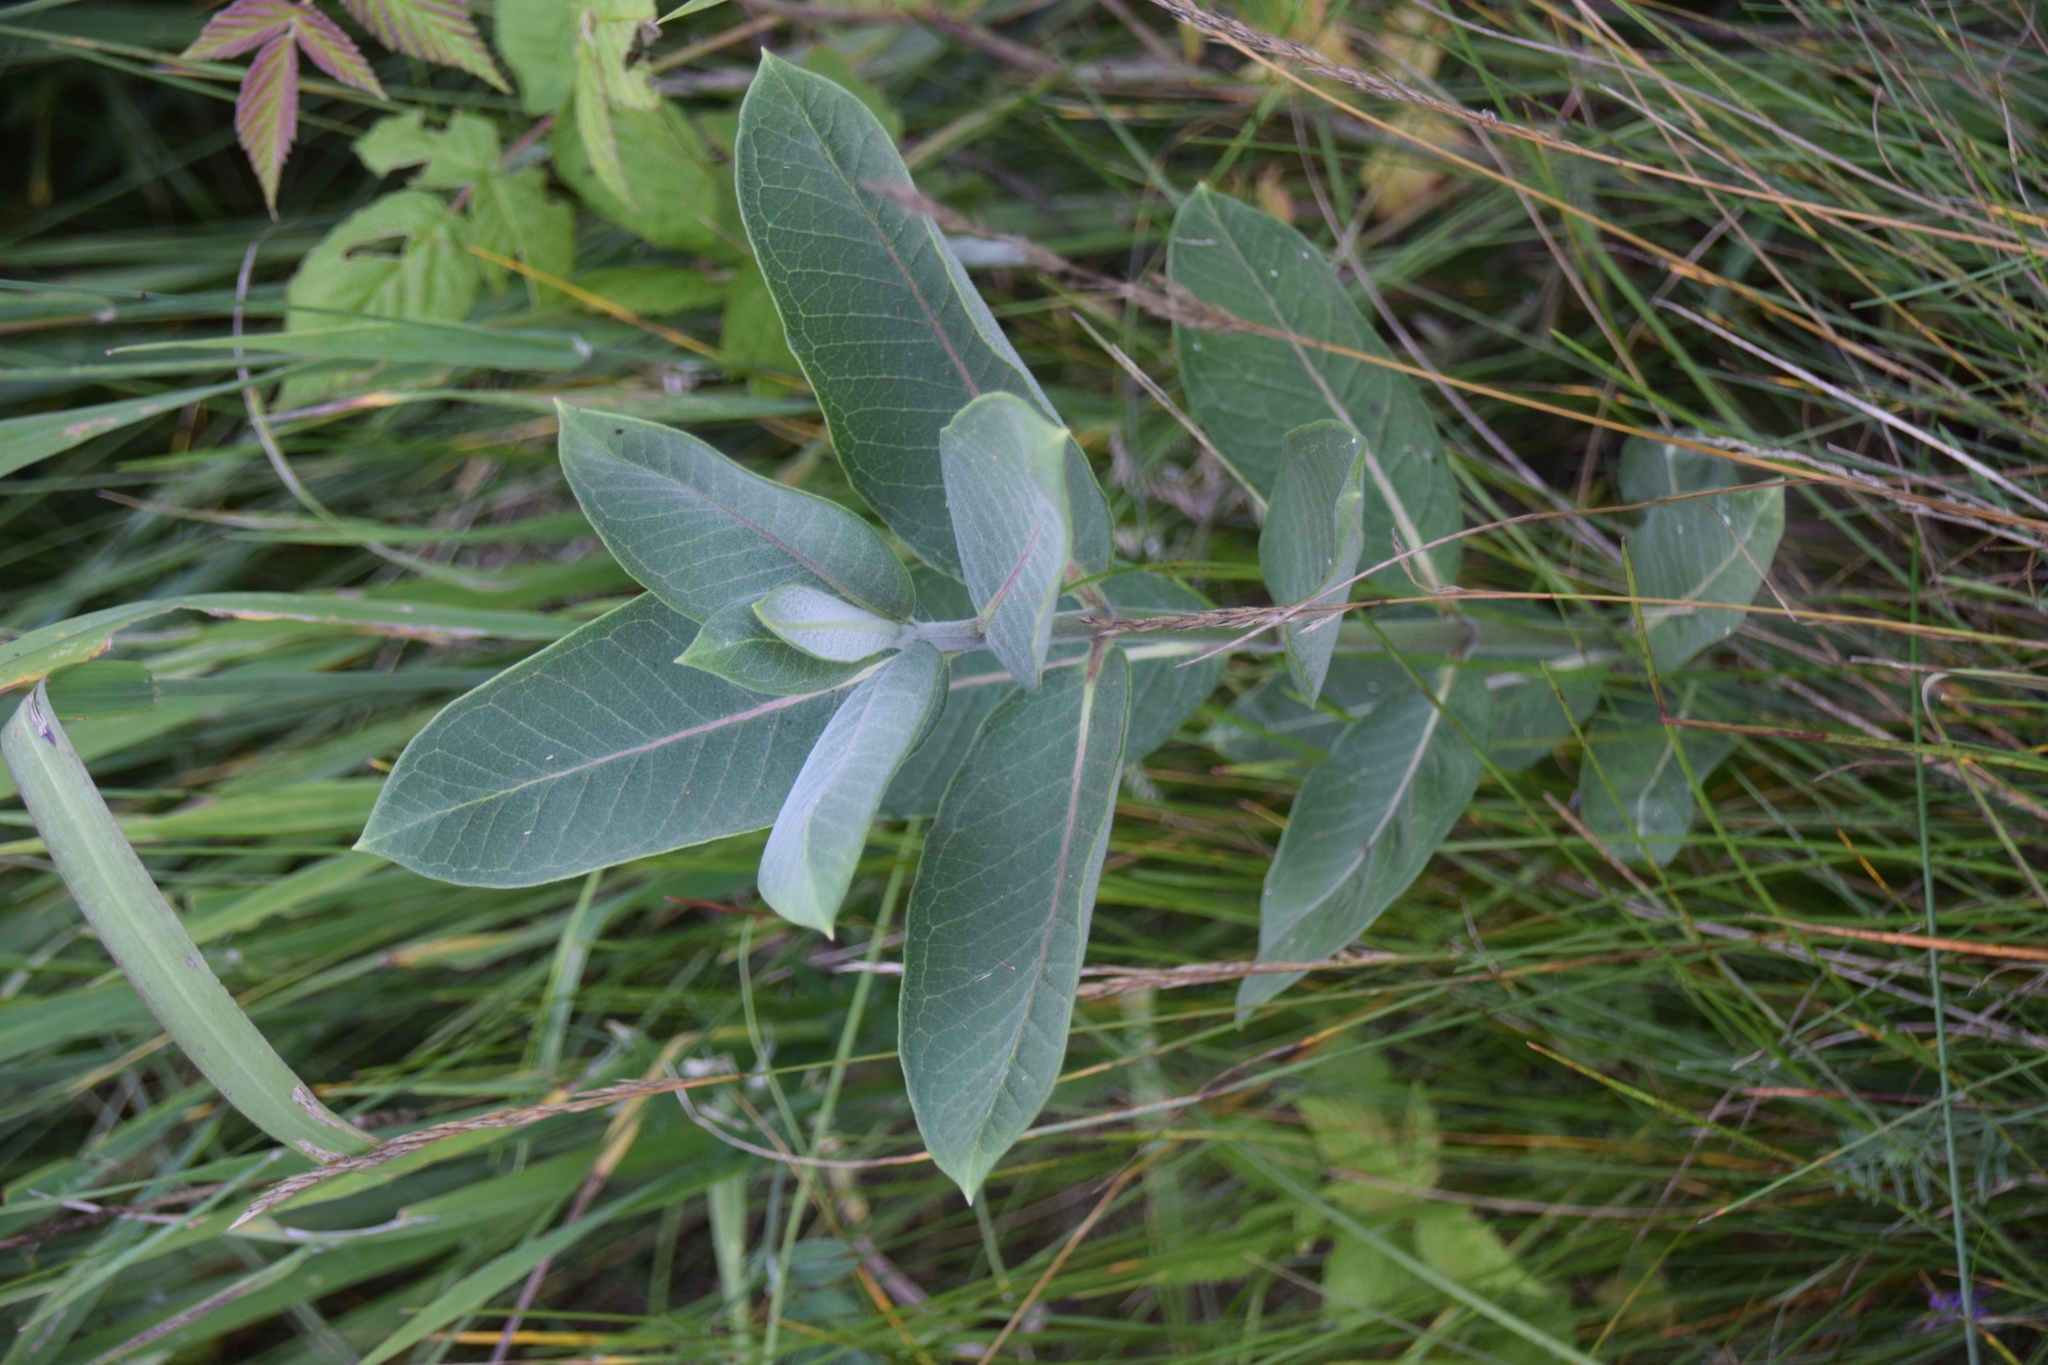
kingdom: Plantae
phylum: Tracheophyta
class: Magnoliopsida
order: Gentianales
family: Apocynaceae
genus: Asclepias
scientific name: Asclepias syriaca
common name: Common milkweed
